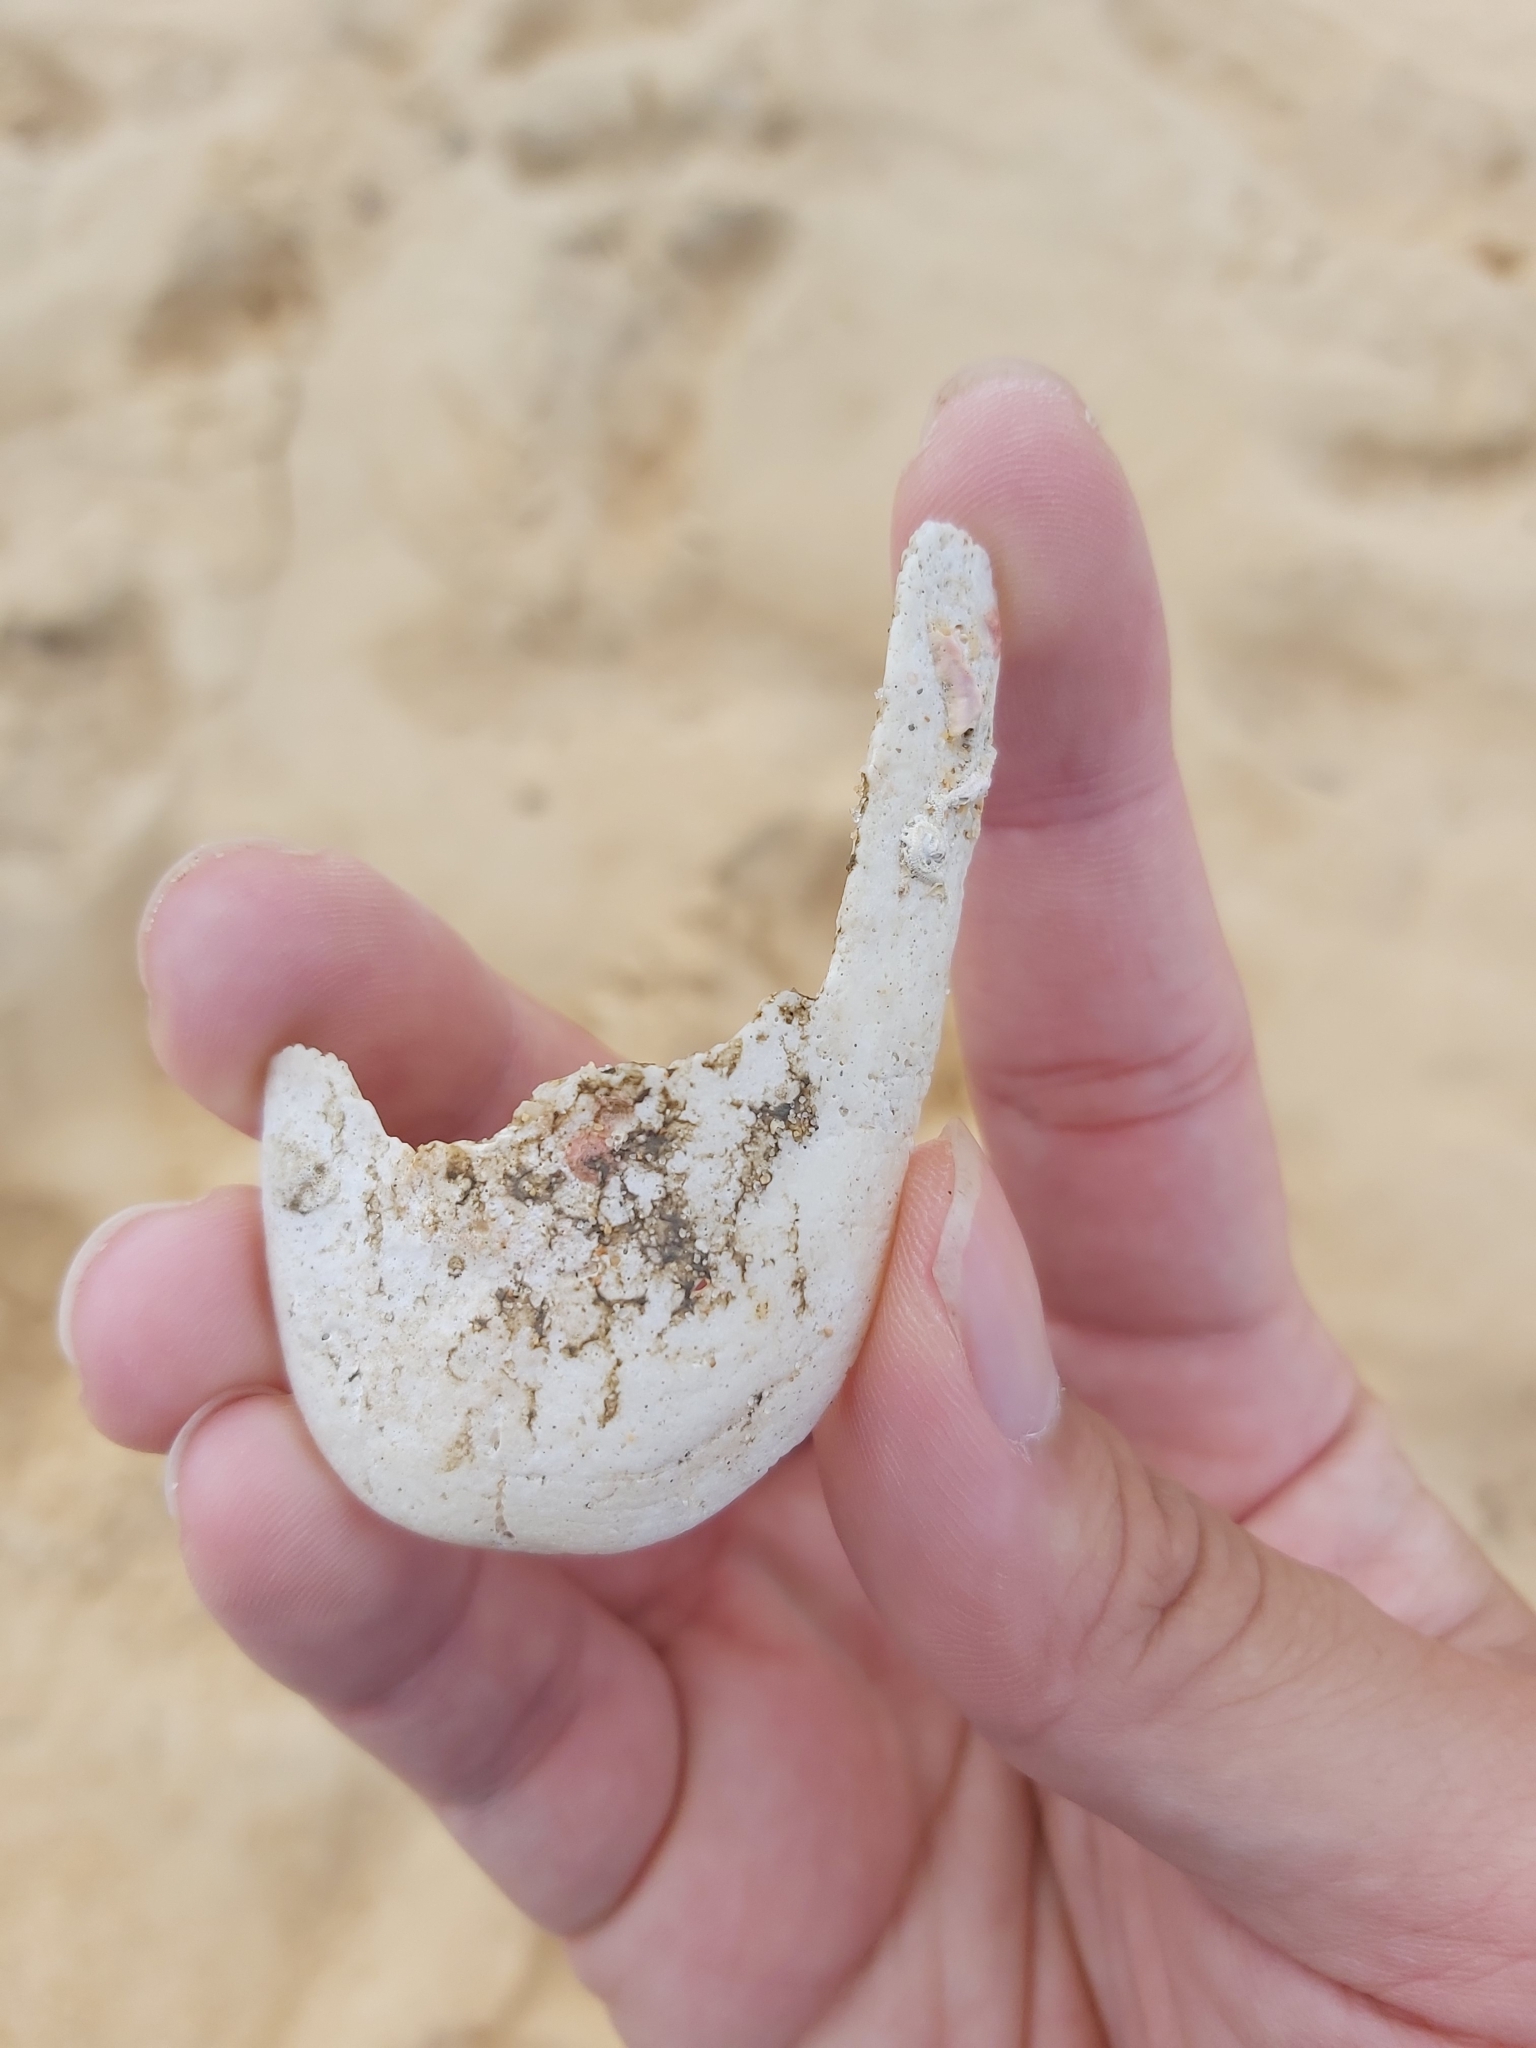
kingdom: Animalia
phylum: Mollusca
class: Gastropoda
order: Lepetellida
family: Fissurellidae
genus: Scutus
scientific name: Scutus antipodes
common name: Duckbill shell
